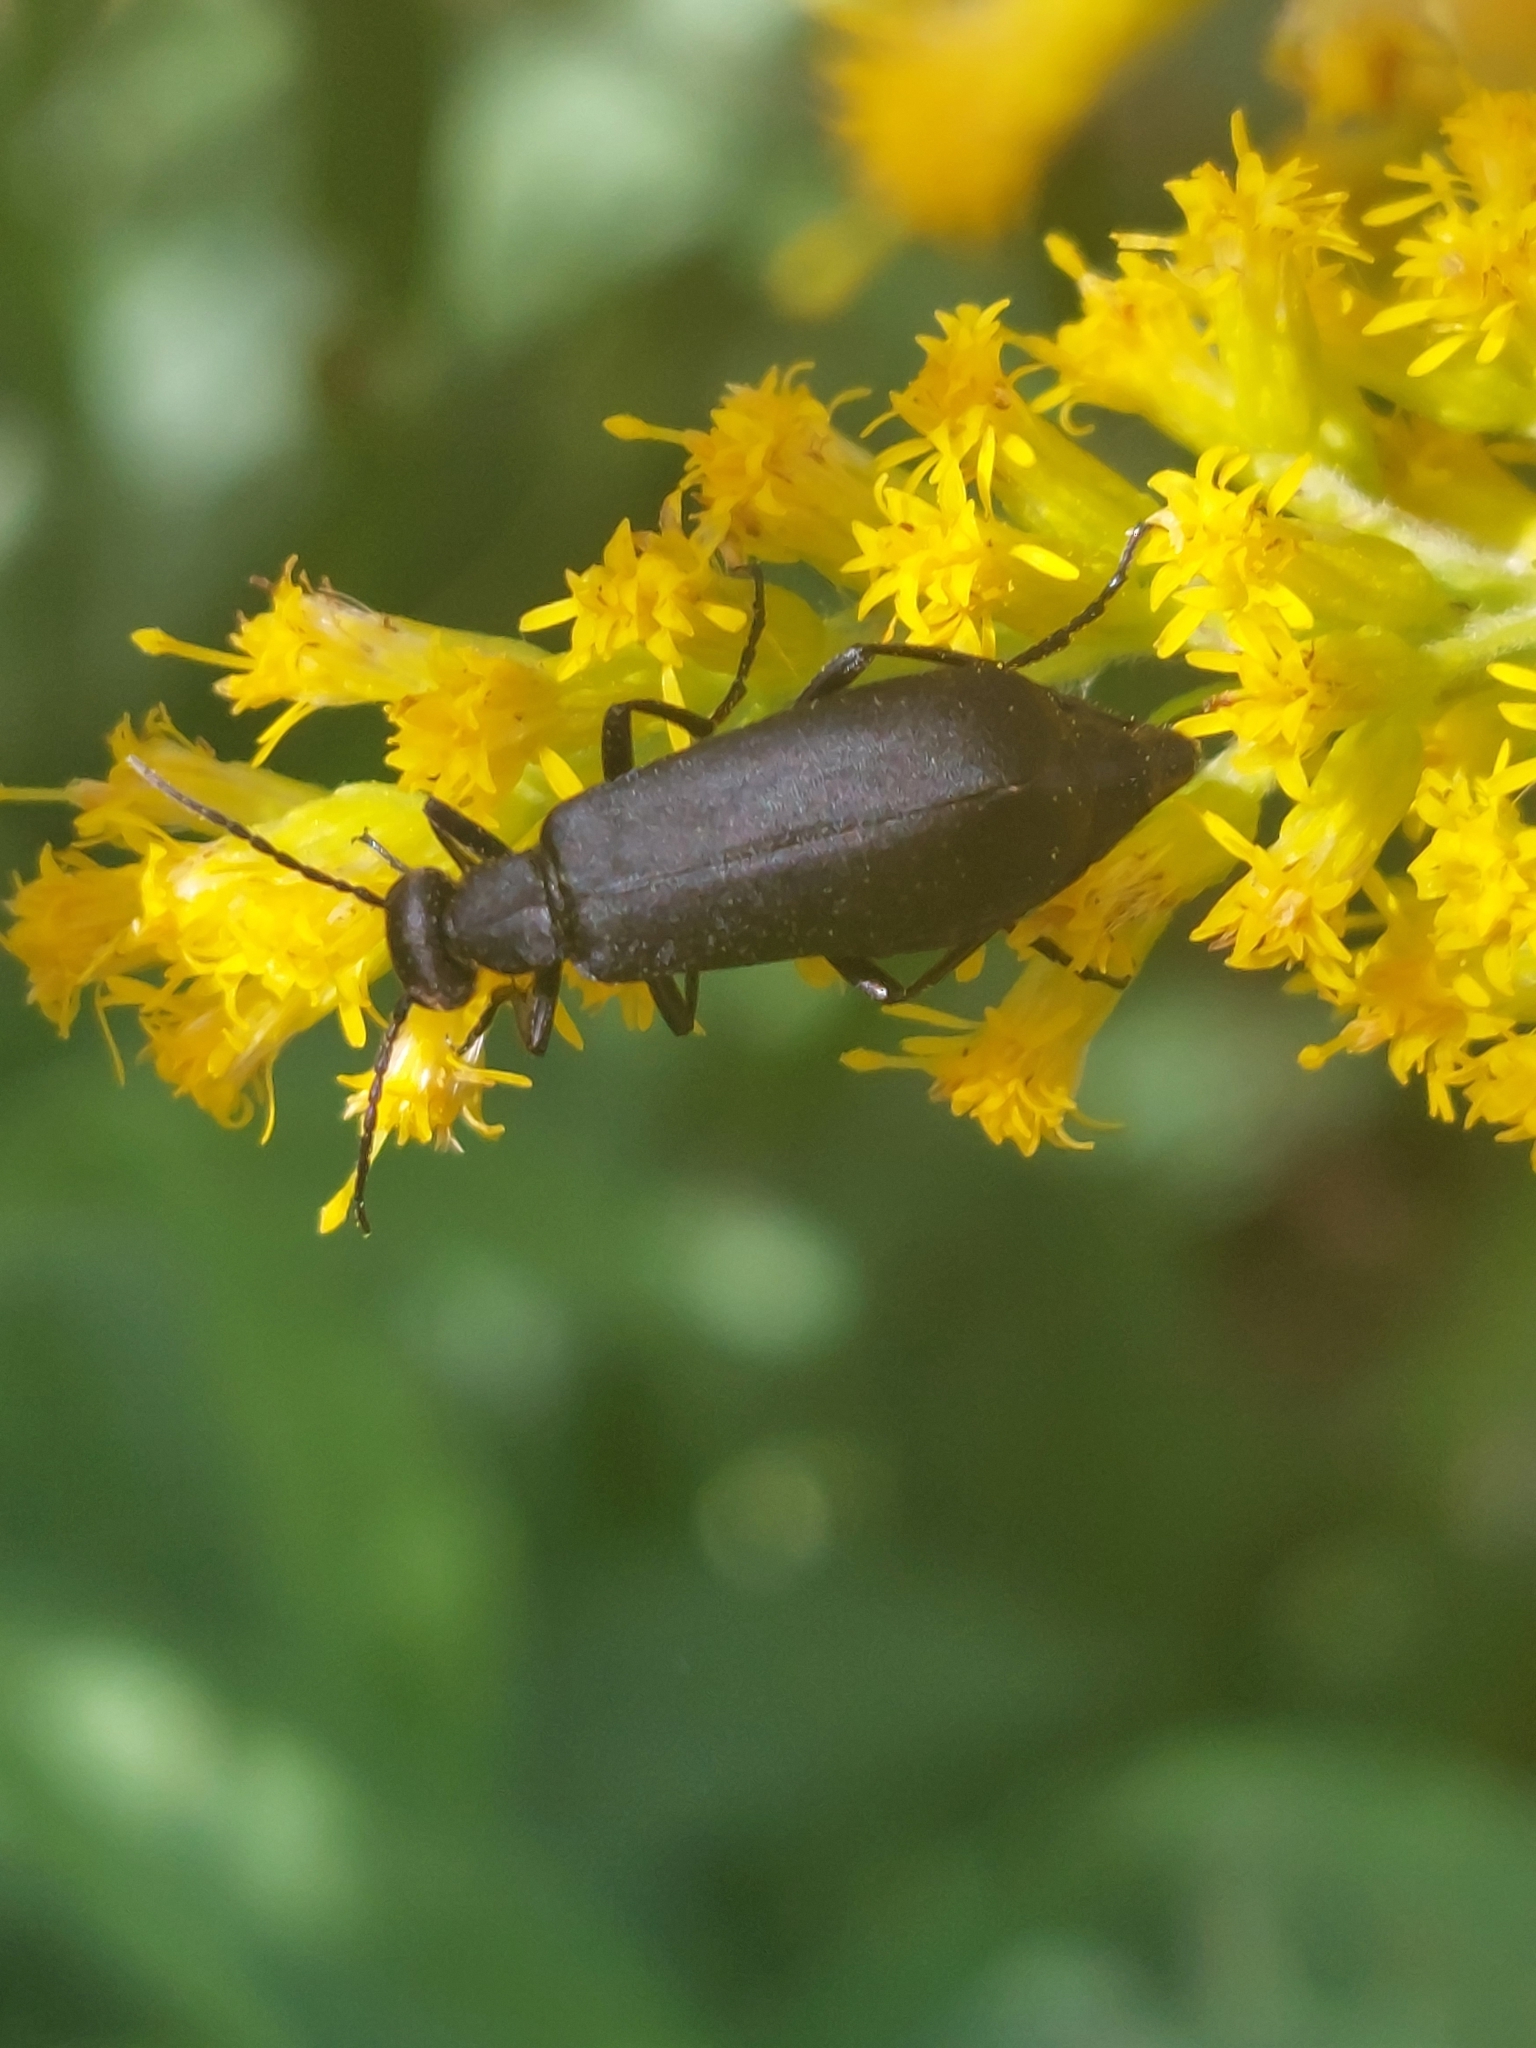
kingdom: Animalia
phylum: Arthropoda
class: Insecta
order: Coleoptera
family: Meloidae
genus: Epicauta
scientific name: Epicauta pensylvanica
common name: Black blister beetle
